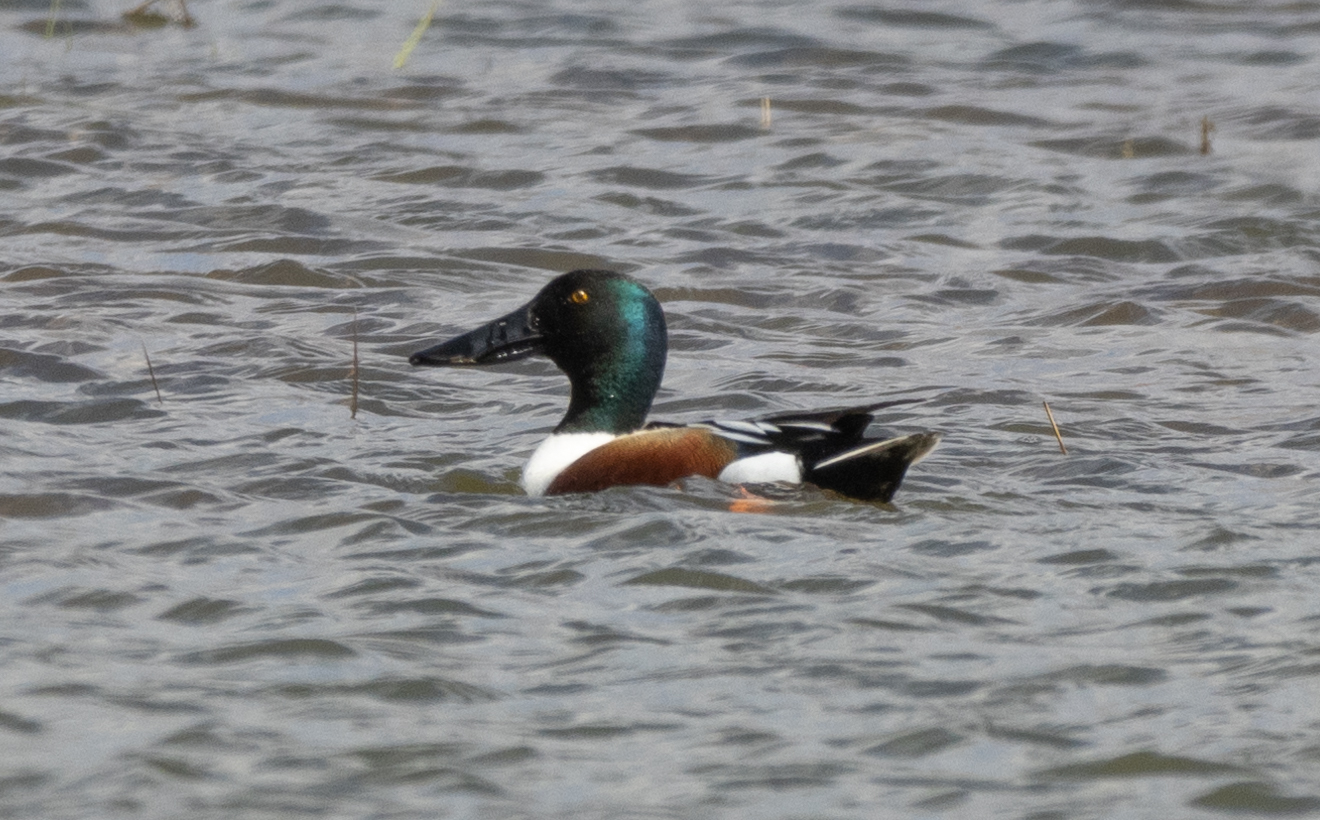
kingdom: Animalia
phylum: Chordata
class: Aves
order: Anseriformes
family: Anatidae
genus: Spatula
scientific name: Spatula clypeata
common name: Northern shoveler
